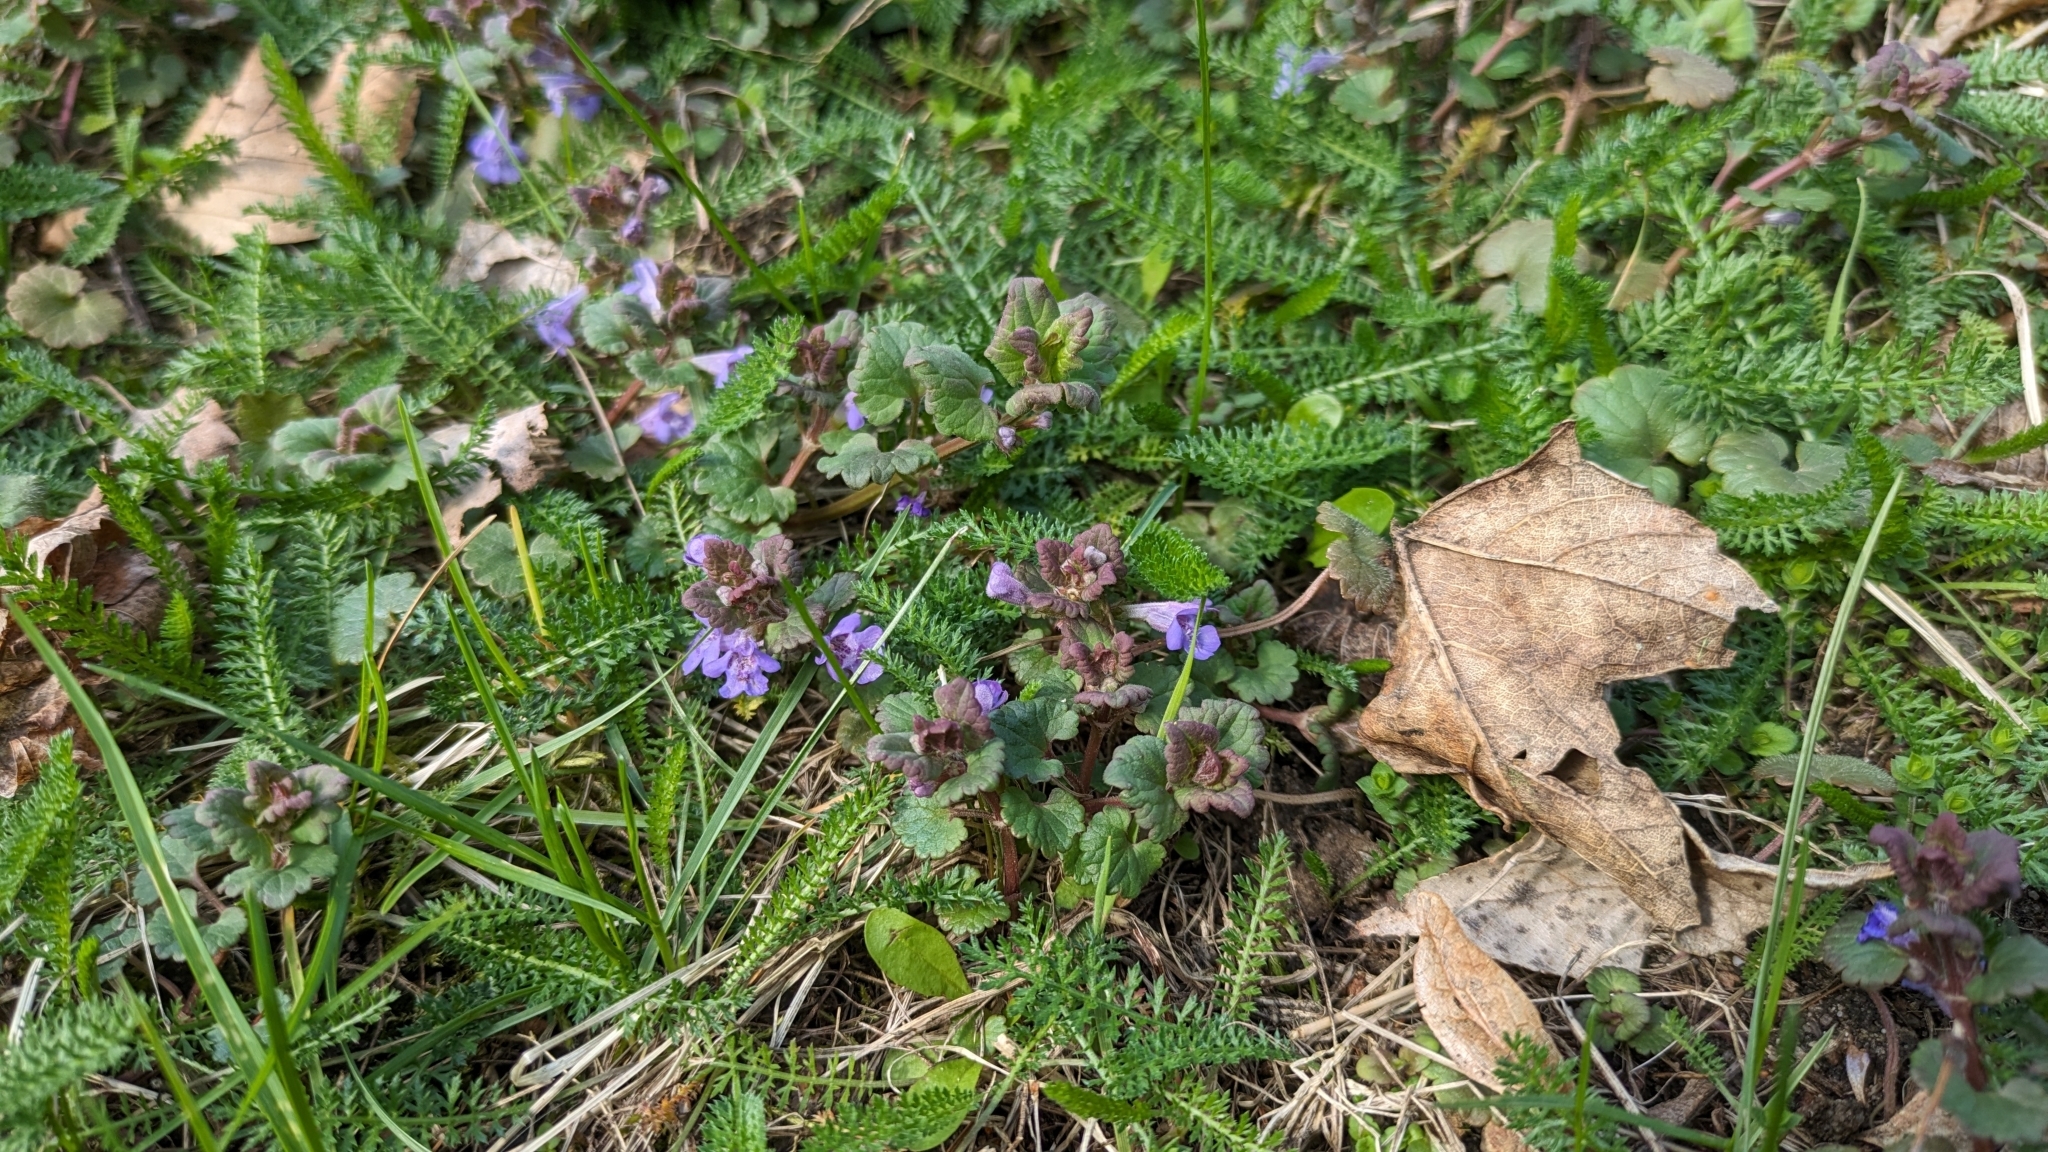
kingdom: Plantae
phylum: Tracheophyta
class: Magnoliopsida
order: Lamiales
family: Lamiaceae
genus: Glechoma
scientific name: Glechoma hederacea
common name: Ground ivy
